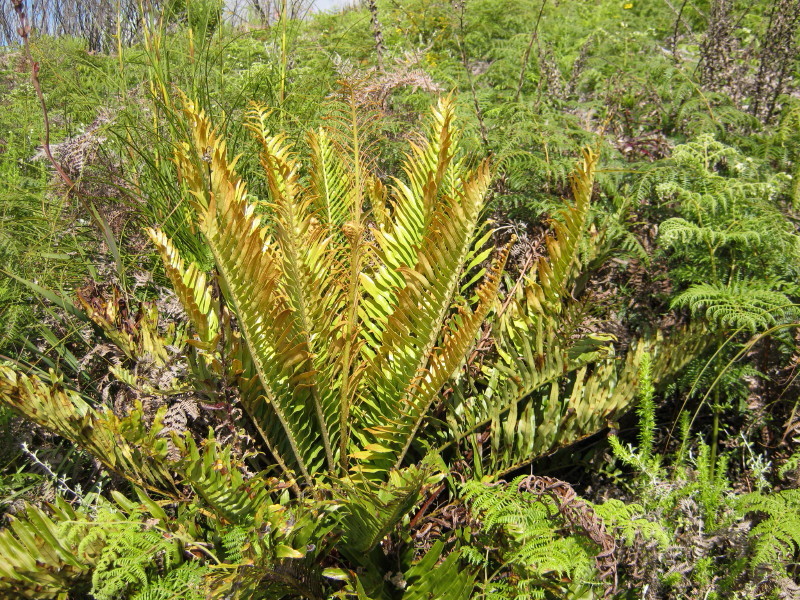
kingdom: Plantae
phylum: Tracheophyta
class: Polypodiopsida
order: Polypodiales
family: Blechnaceae
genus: Lomariocycas
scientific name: Lomariocycas tabularis
